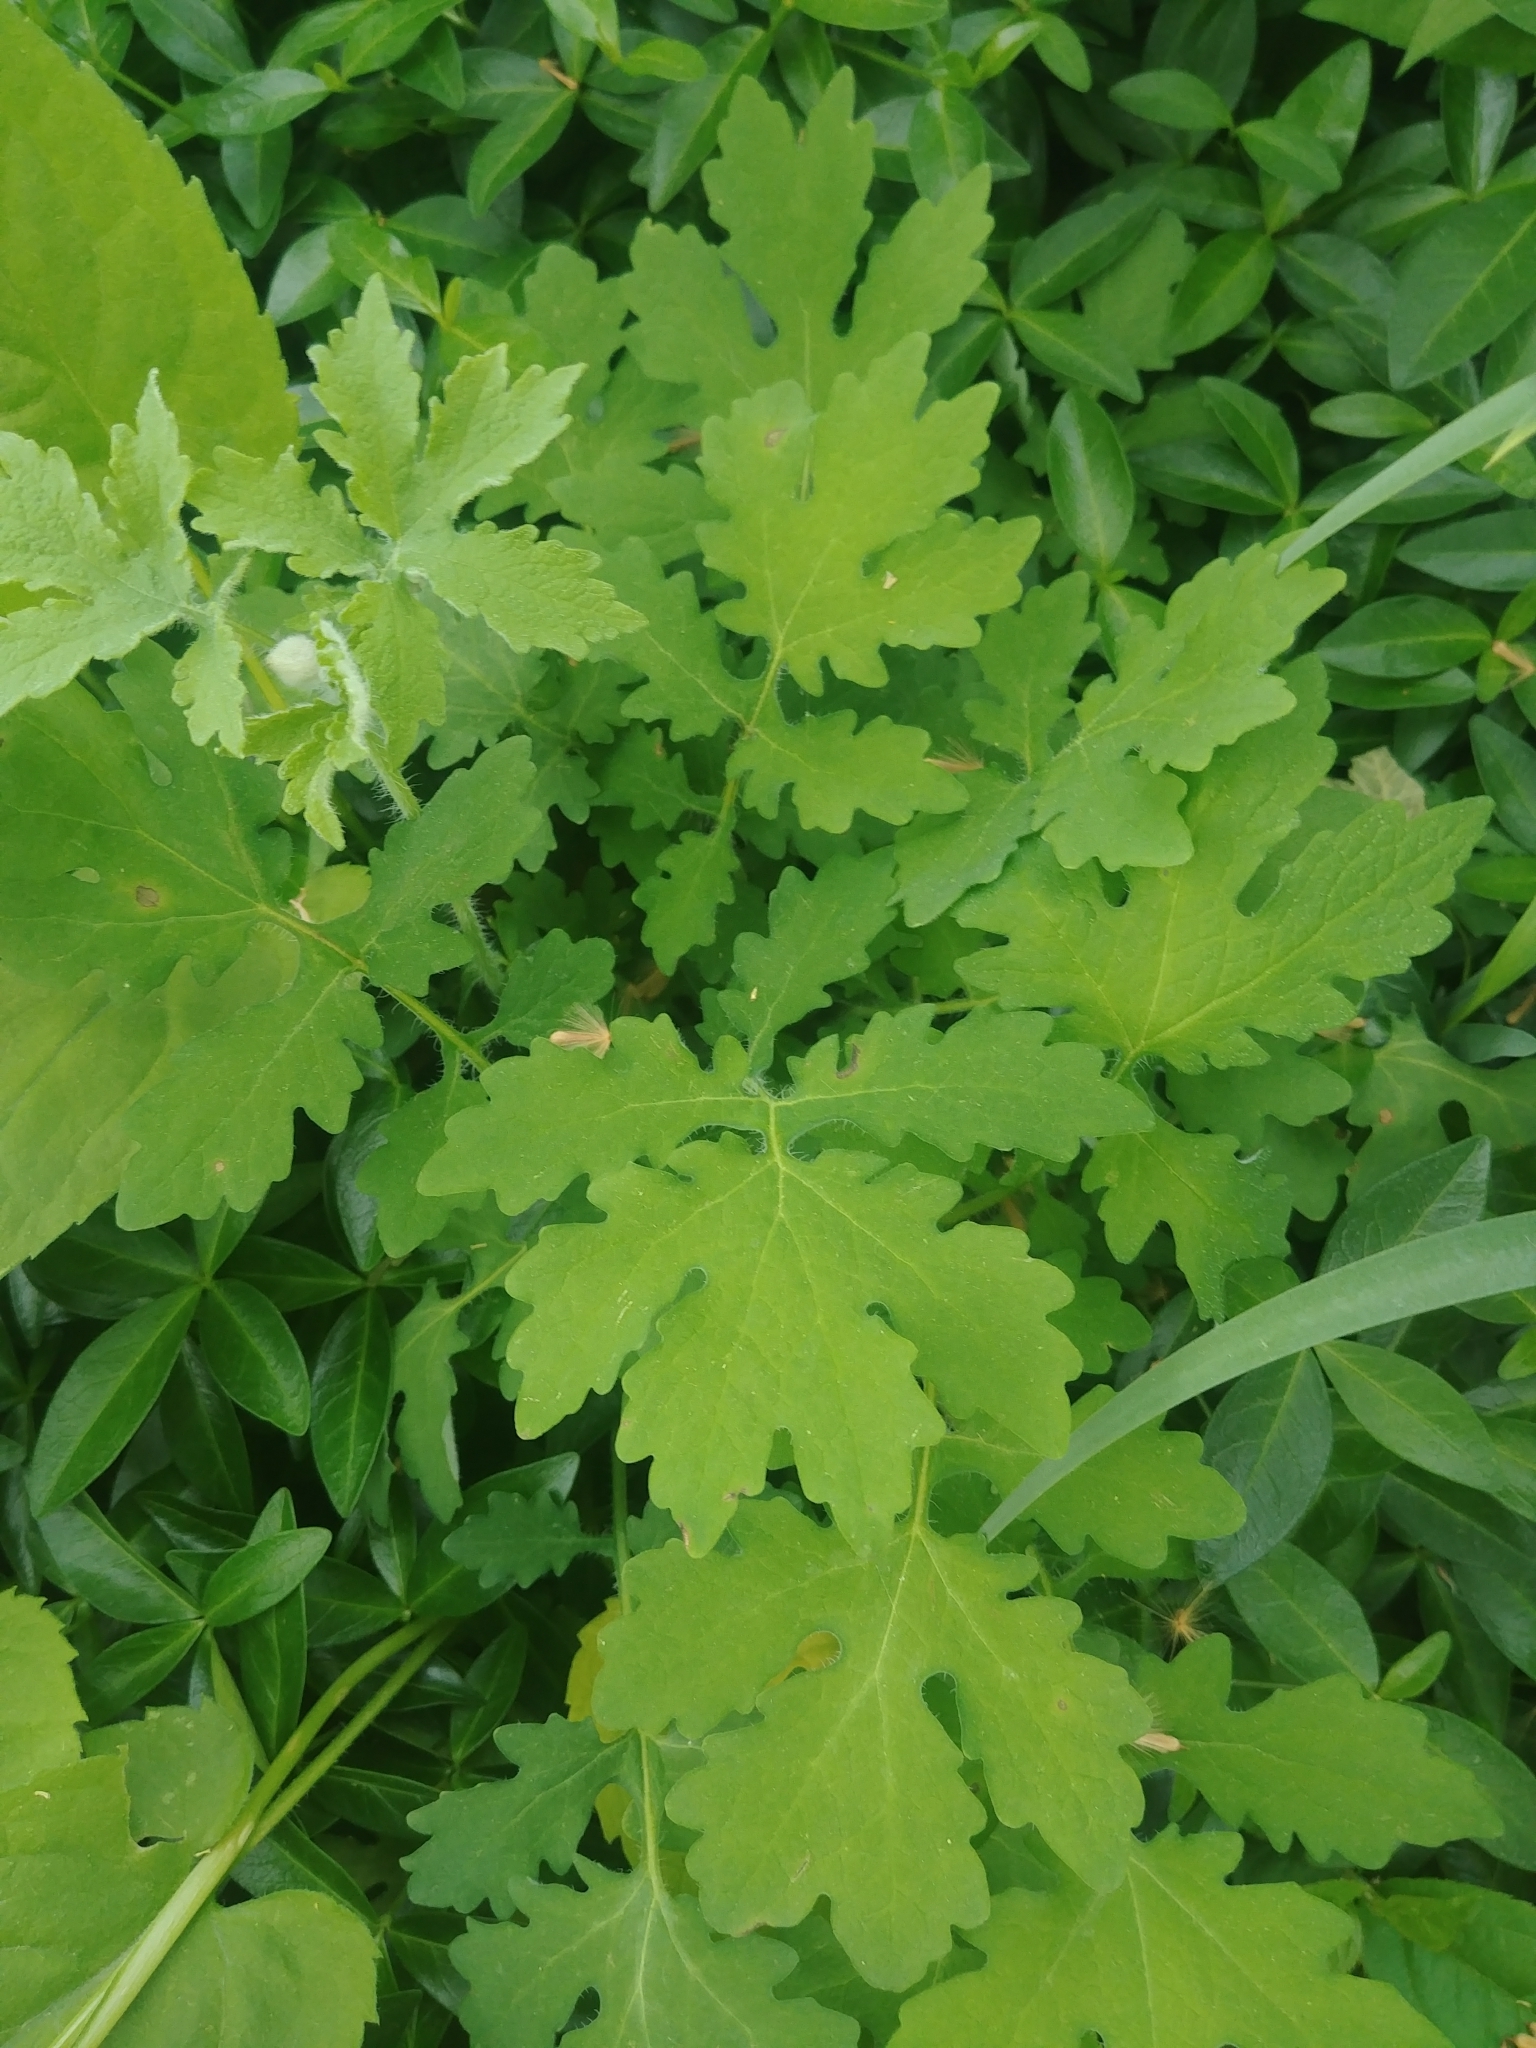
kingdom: Plantae
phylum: Tracheophyta
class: Magnoliopsida
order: Ranunculales
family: Papaveraceae
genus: Stylophorum
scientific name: Stylophorum diphyllum
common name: Celandine poppy
